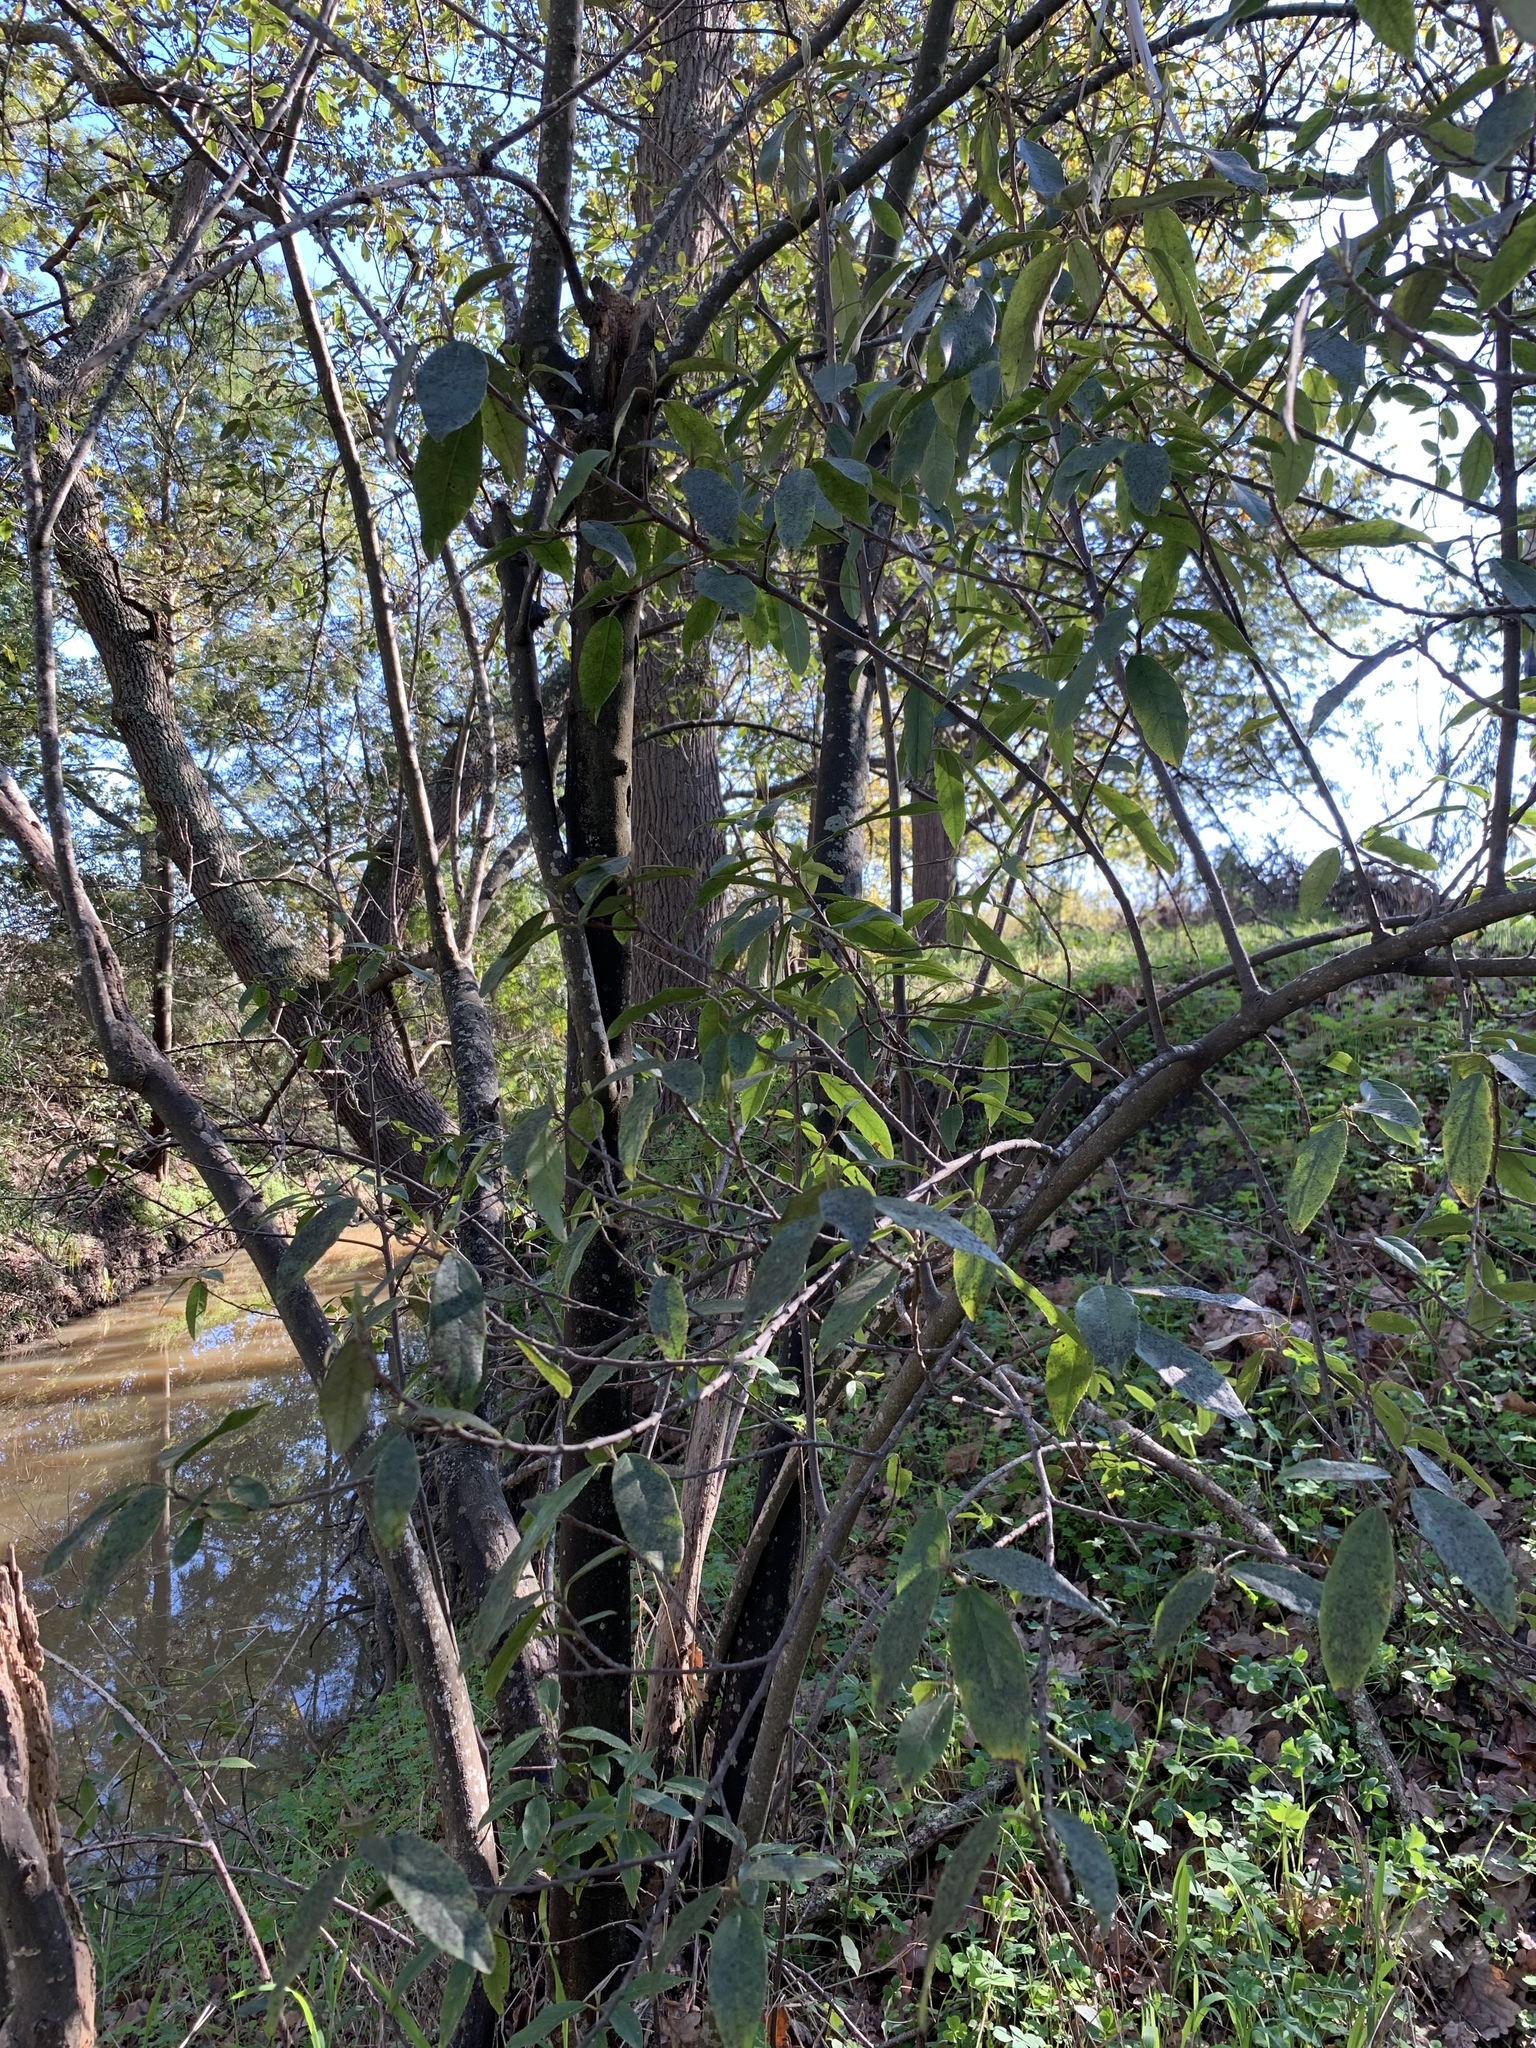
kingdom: Plantae
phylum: Tracheophyta
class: Magnoliopsida
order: Malpighiales
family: Achariaceae
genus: Kiggelaria
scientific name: Kiggelaria africana
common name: Wild peach
